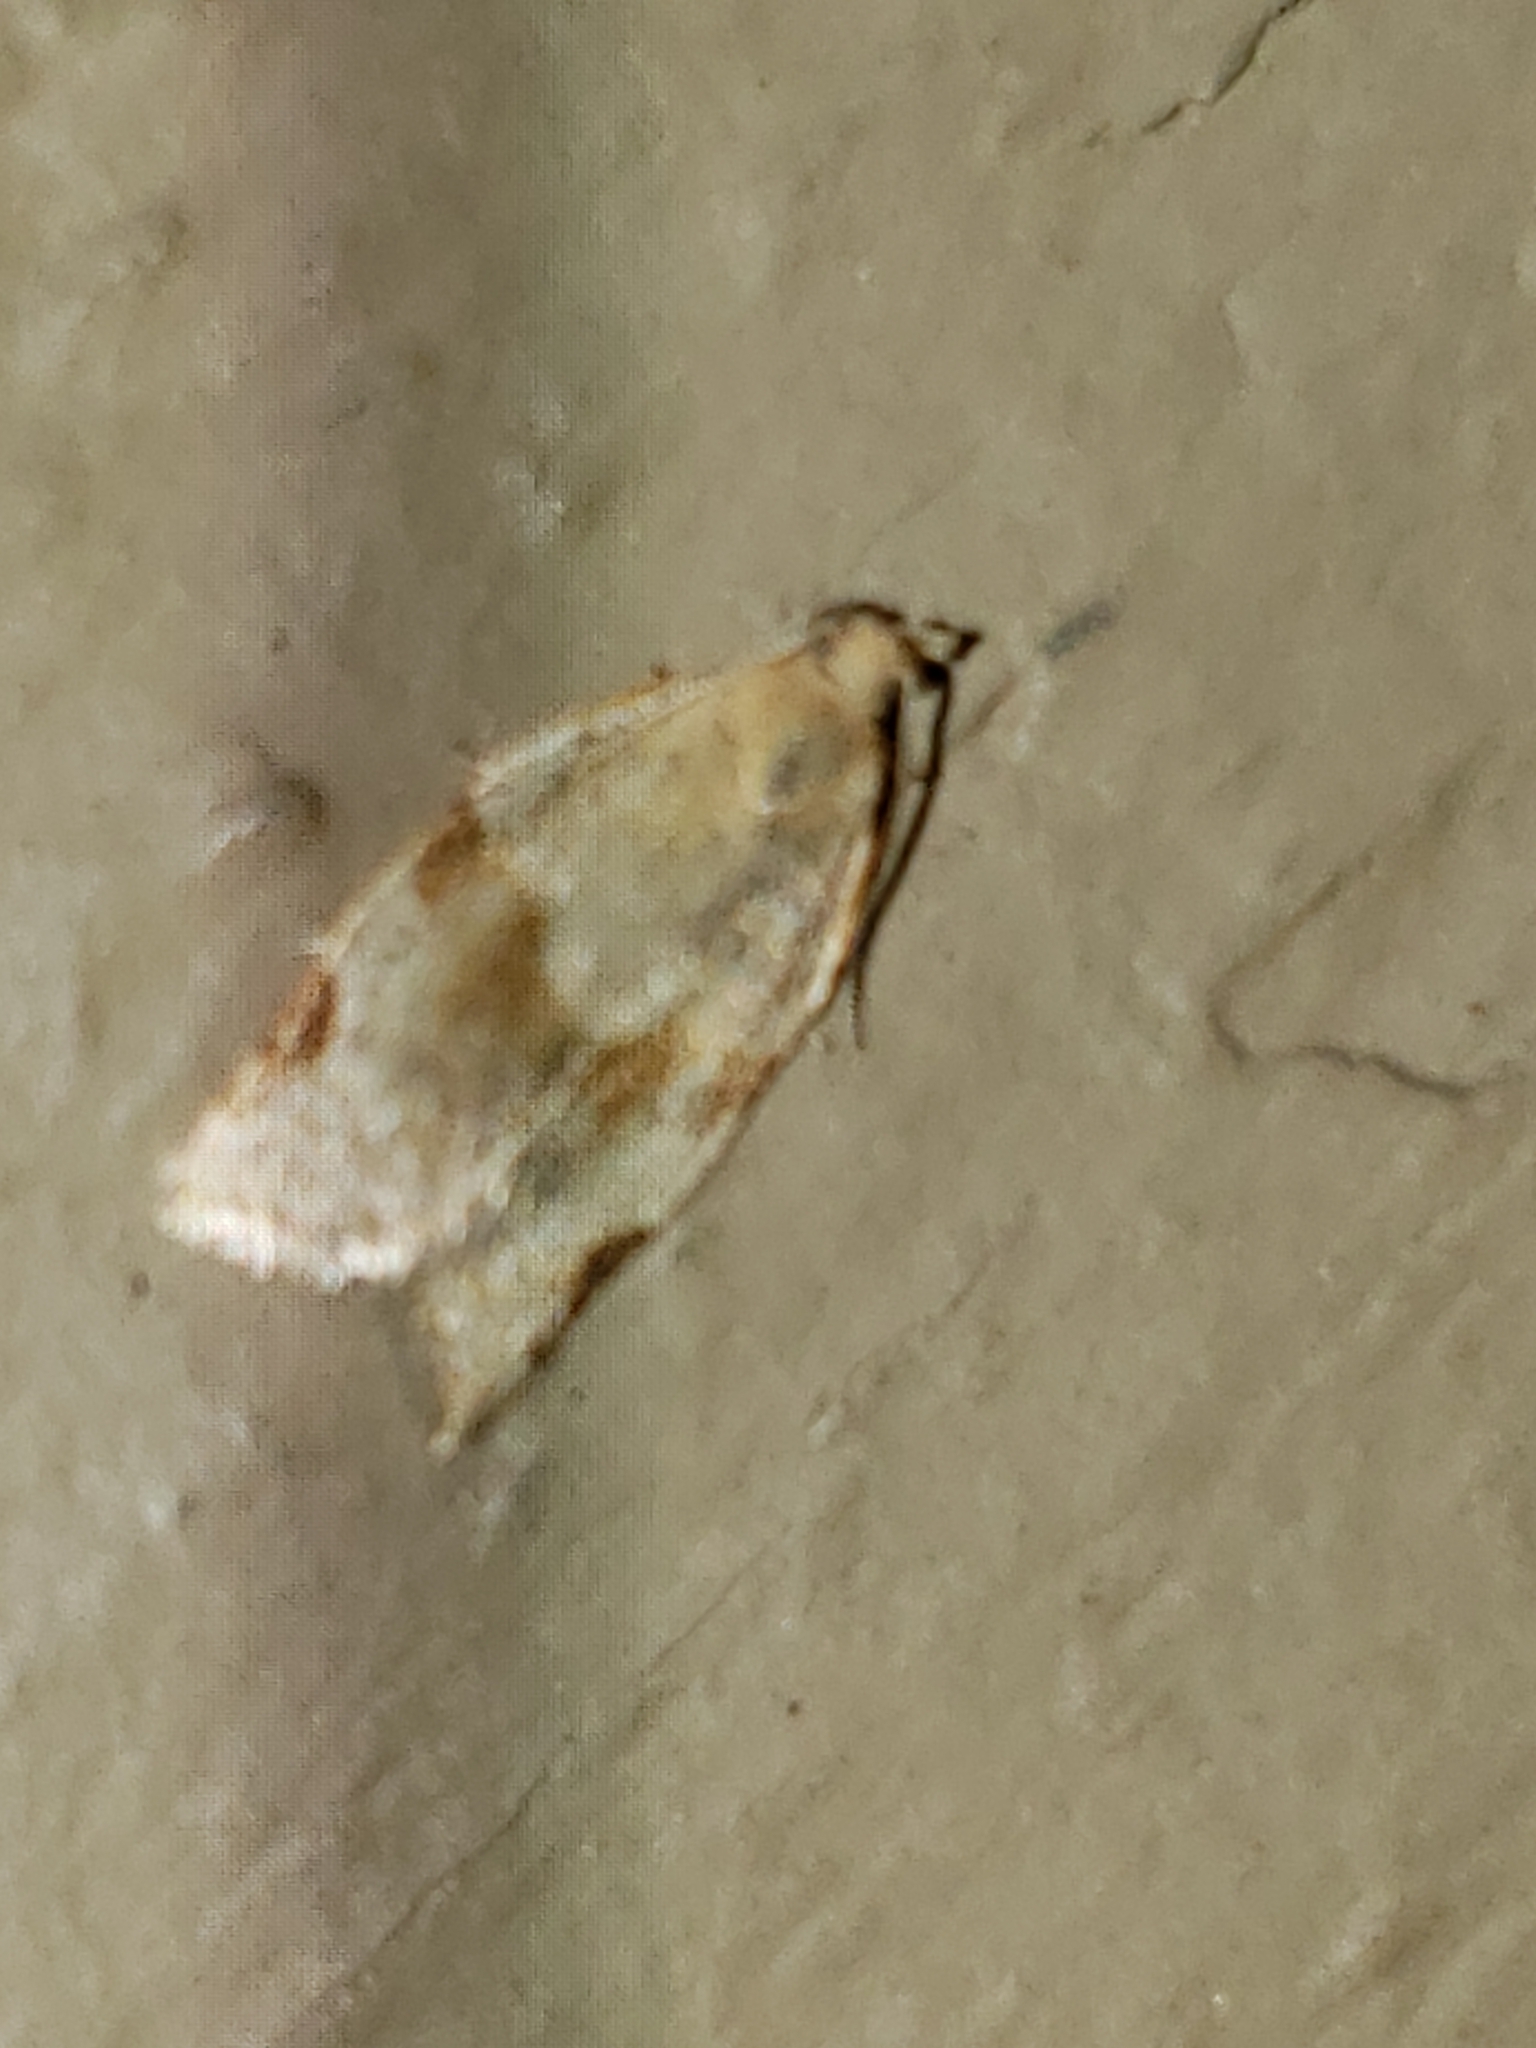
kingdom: Animalia
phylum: Arthropoda
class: Insecta
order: Lepidoptera
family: Tortricidae
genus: Clepsis
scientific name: Clepsis virescana
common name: Greenish apple moth
